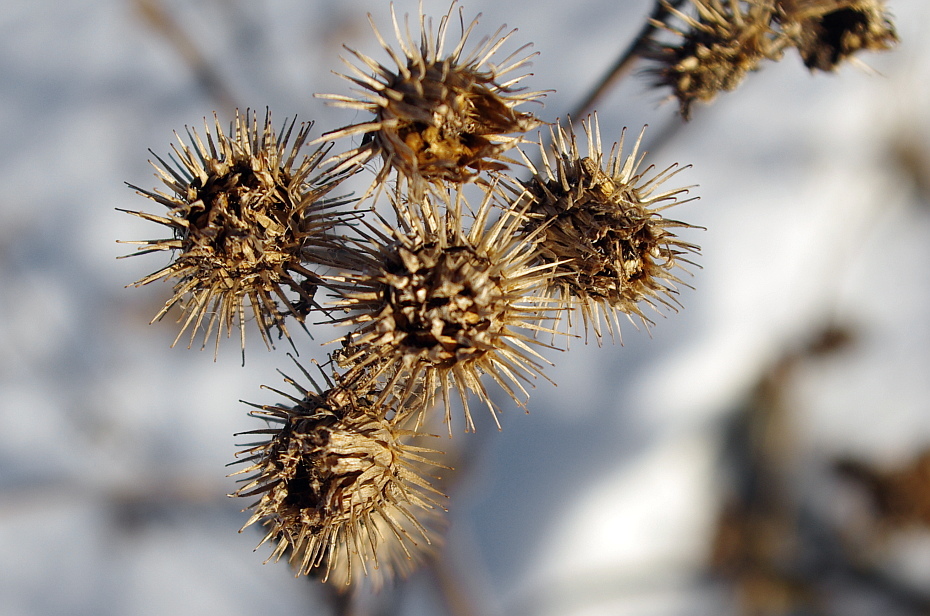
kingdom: Plantae
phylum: Tracheophyta
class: Magnoliopsida
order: Asterales
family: Asteraceae
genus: Arctium
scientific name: Arctium tomentosum
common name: Woolly burdock
